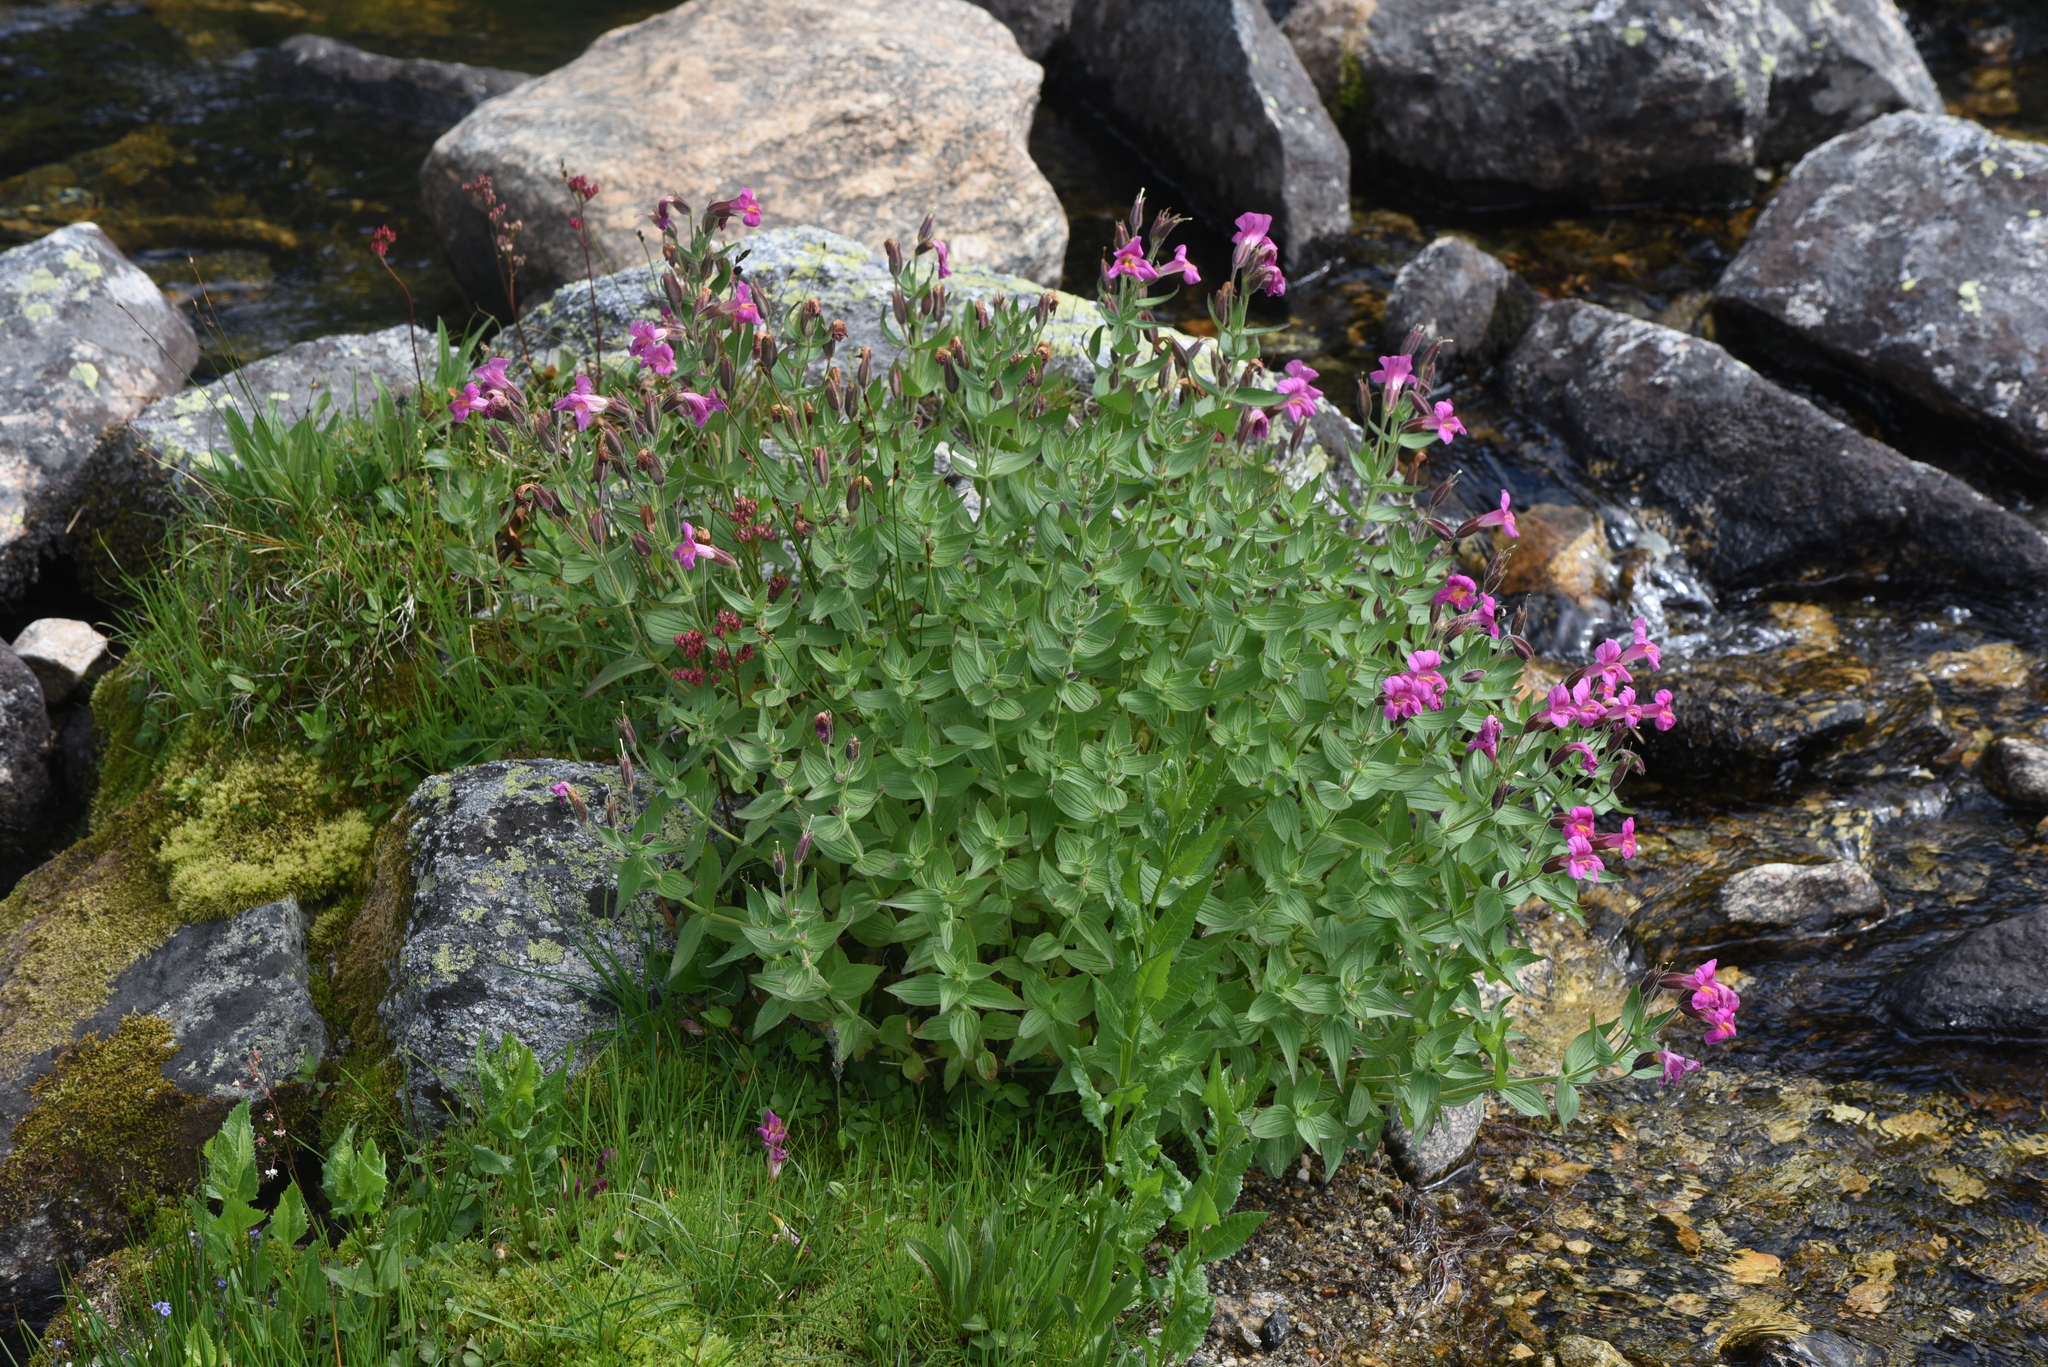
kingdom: Plantae
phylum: Tracheophyta
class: Magnoliopsida
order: Lamiales
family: Phrymaceae
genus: Erythranthe
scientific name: Erythranthe lewisii
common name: Lewis's monkey-flower
